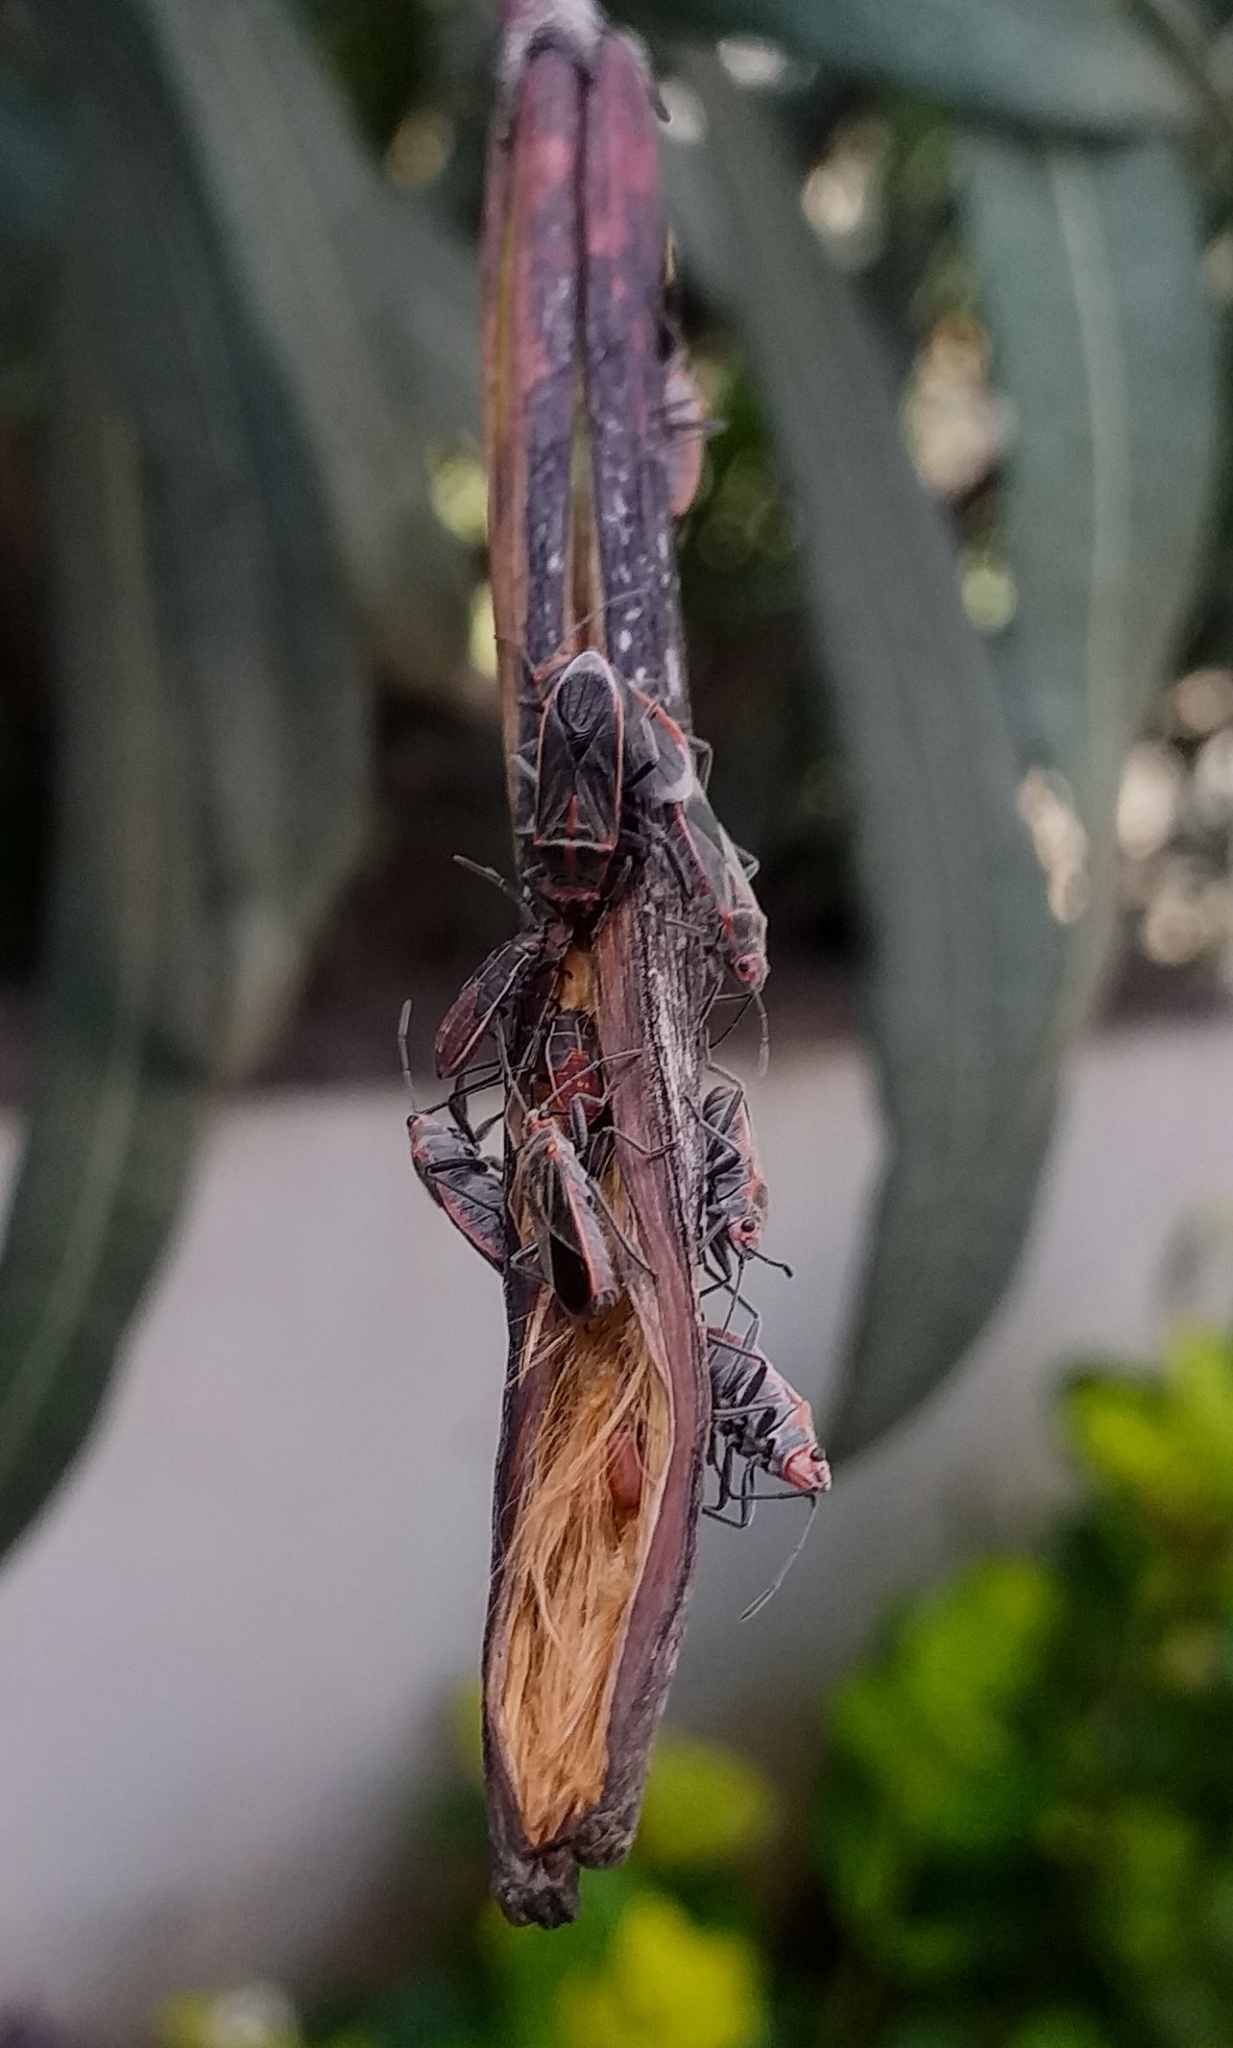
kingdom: Animalia
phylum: Arthropoda
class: Insecta
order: Hemiptera
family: Lygaeidae
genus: Arocatus
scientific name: Arocatus sericans
